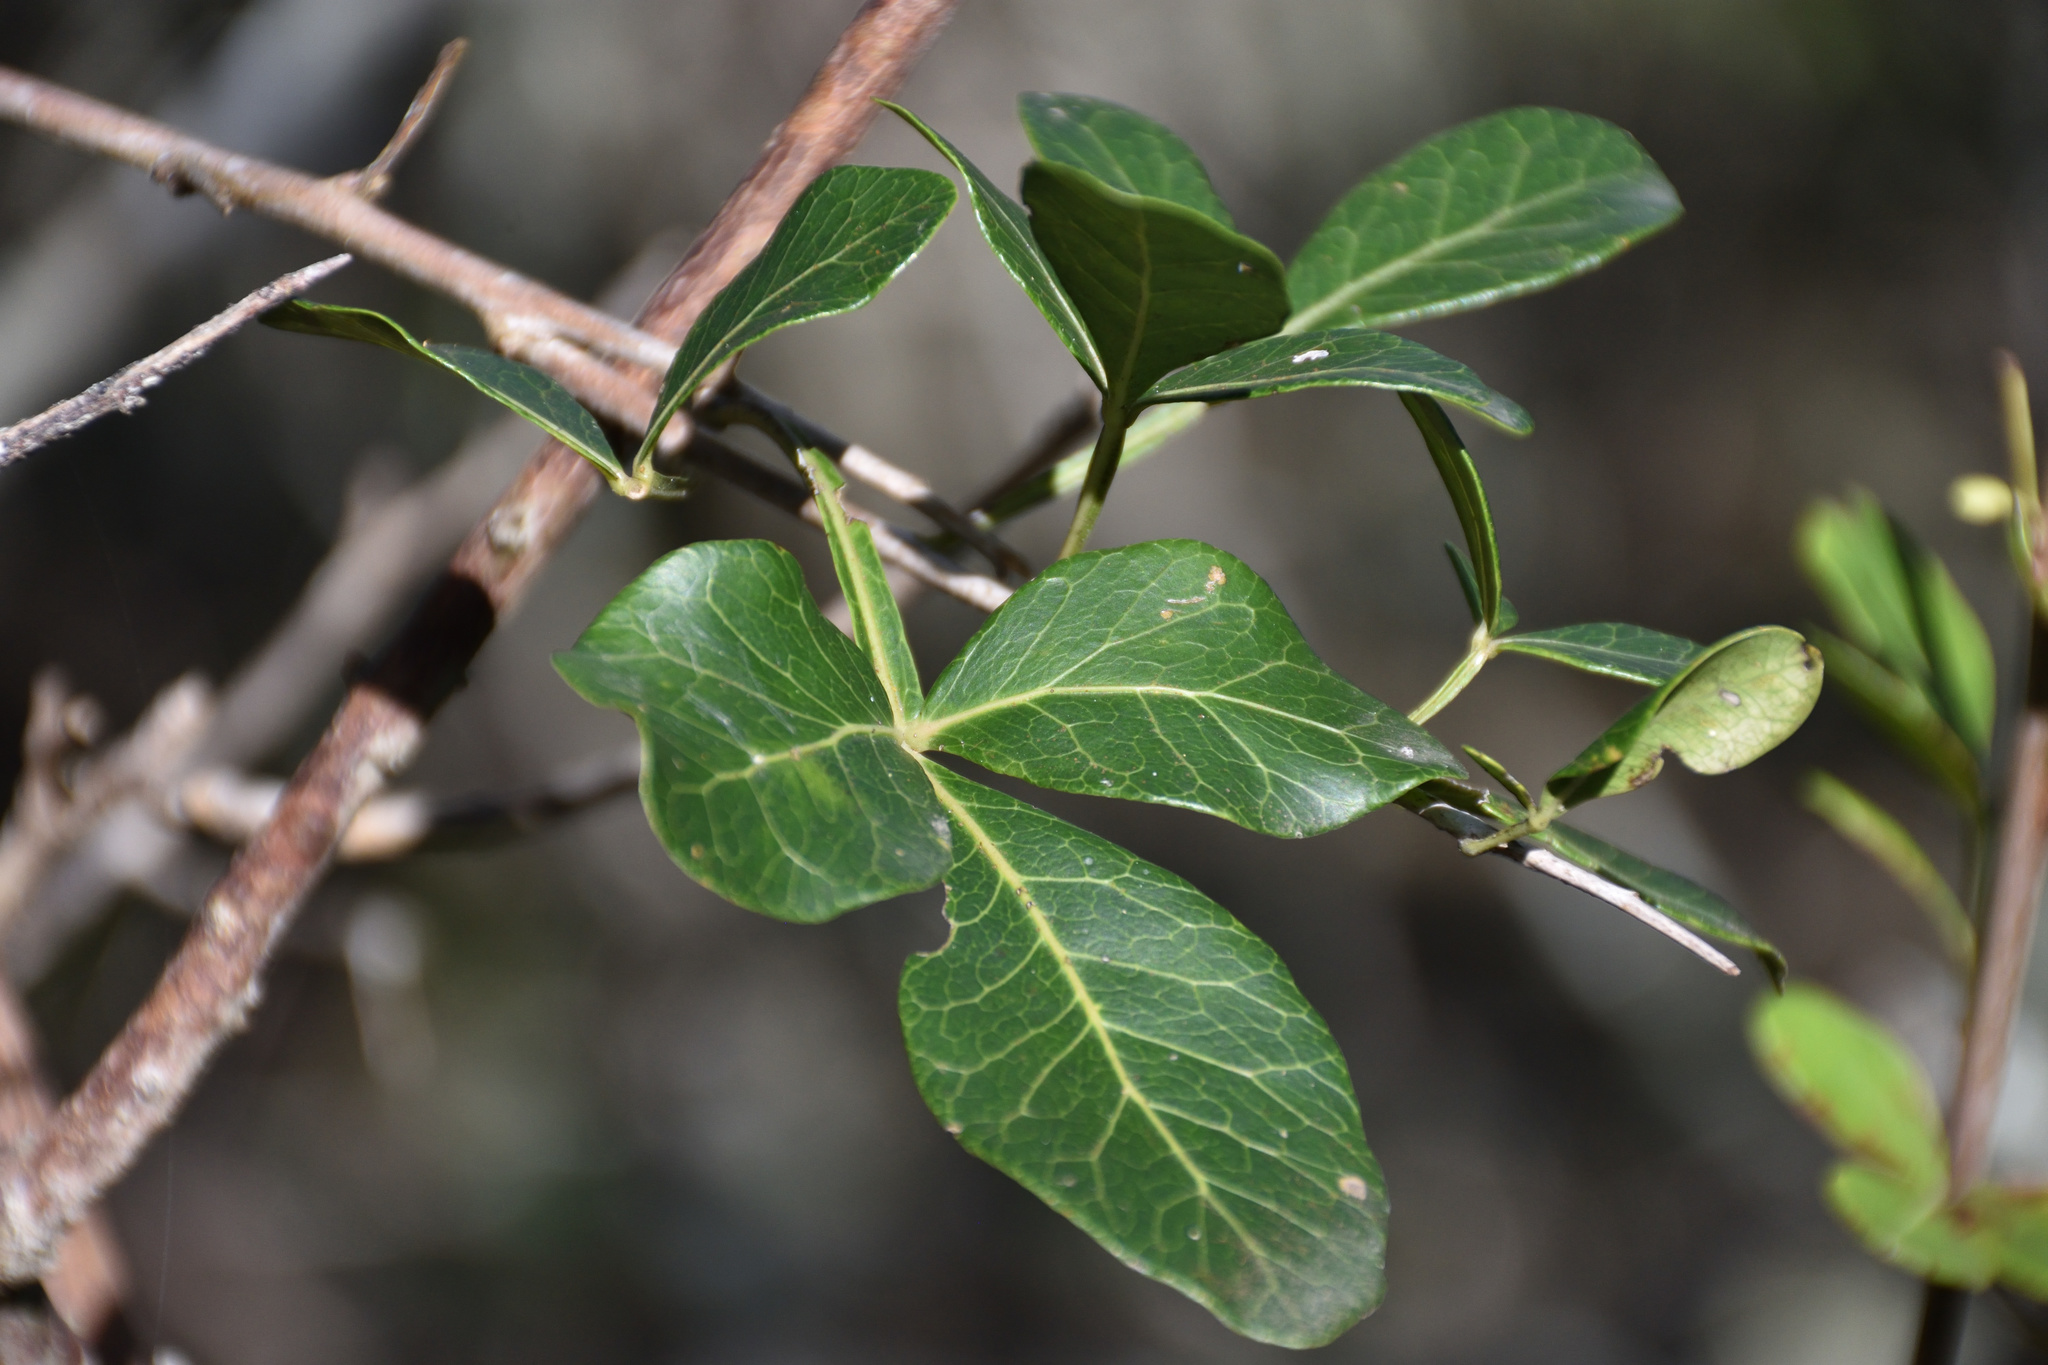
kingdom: Plantae
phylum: Tracheophyta
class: Magnoliopsida
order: Sapindales
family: Anacardiaceae
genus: Searsia
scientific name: Searsia pterota
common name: Winged currant
